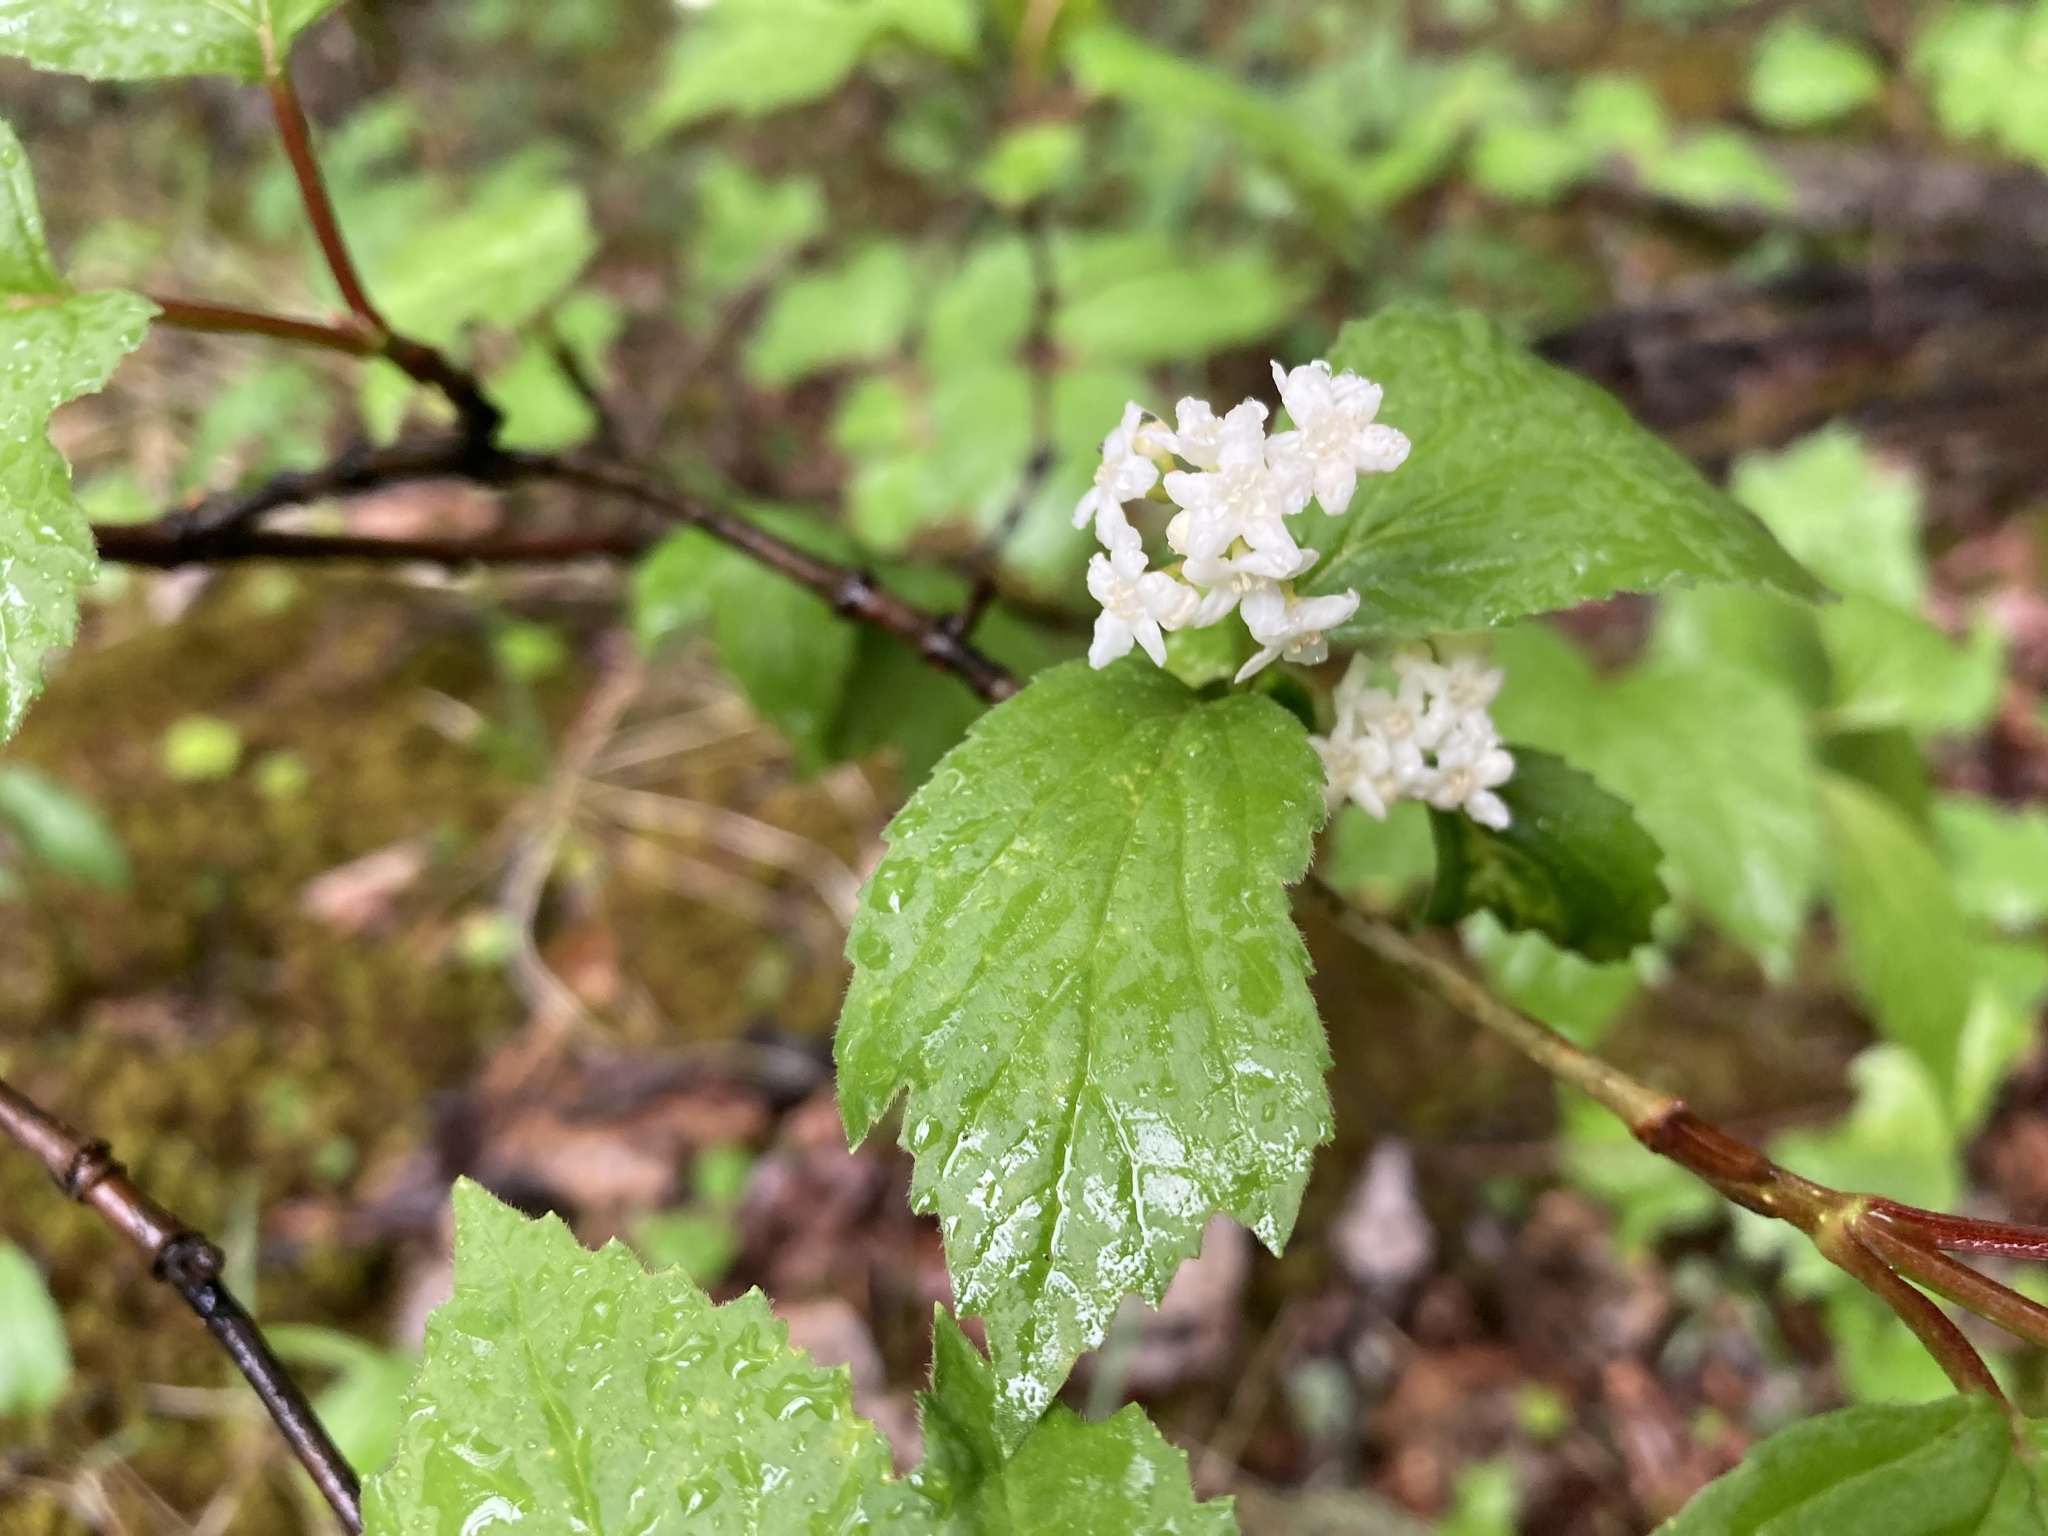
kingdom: Plantae
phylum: Tracheophyta
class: Magnoliopsida
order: Dipsacales
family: Viburnaceae
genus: Viburnum
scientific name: Viburnum edule
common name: Mooseberry
